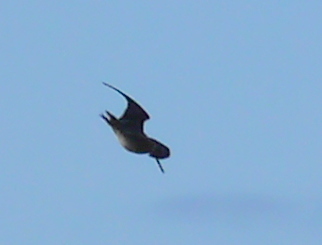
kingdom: Animalia
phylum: Chordata
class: Aves
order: Charadriiformes
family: Scolopacidae
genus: Gallinago
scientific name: Gallinago delicata
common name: Wilson's snipe
